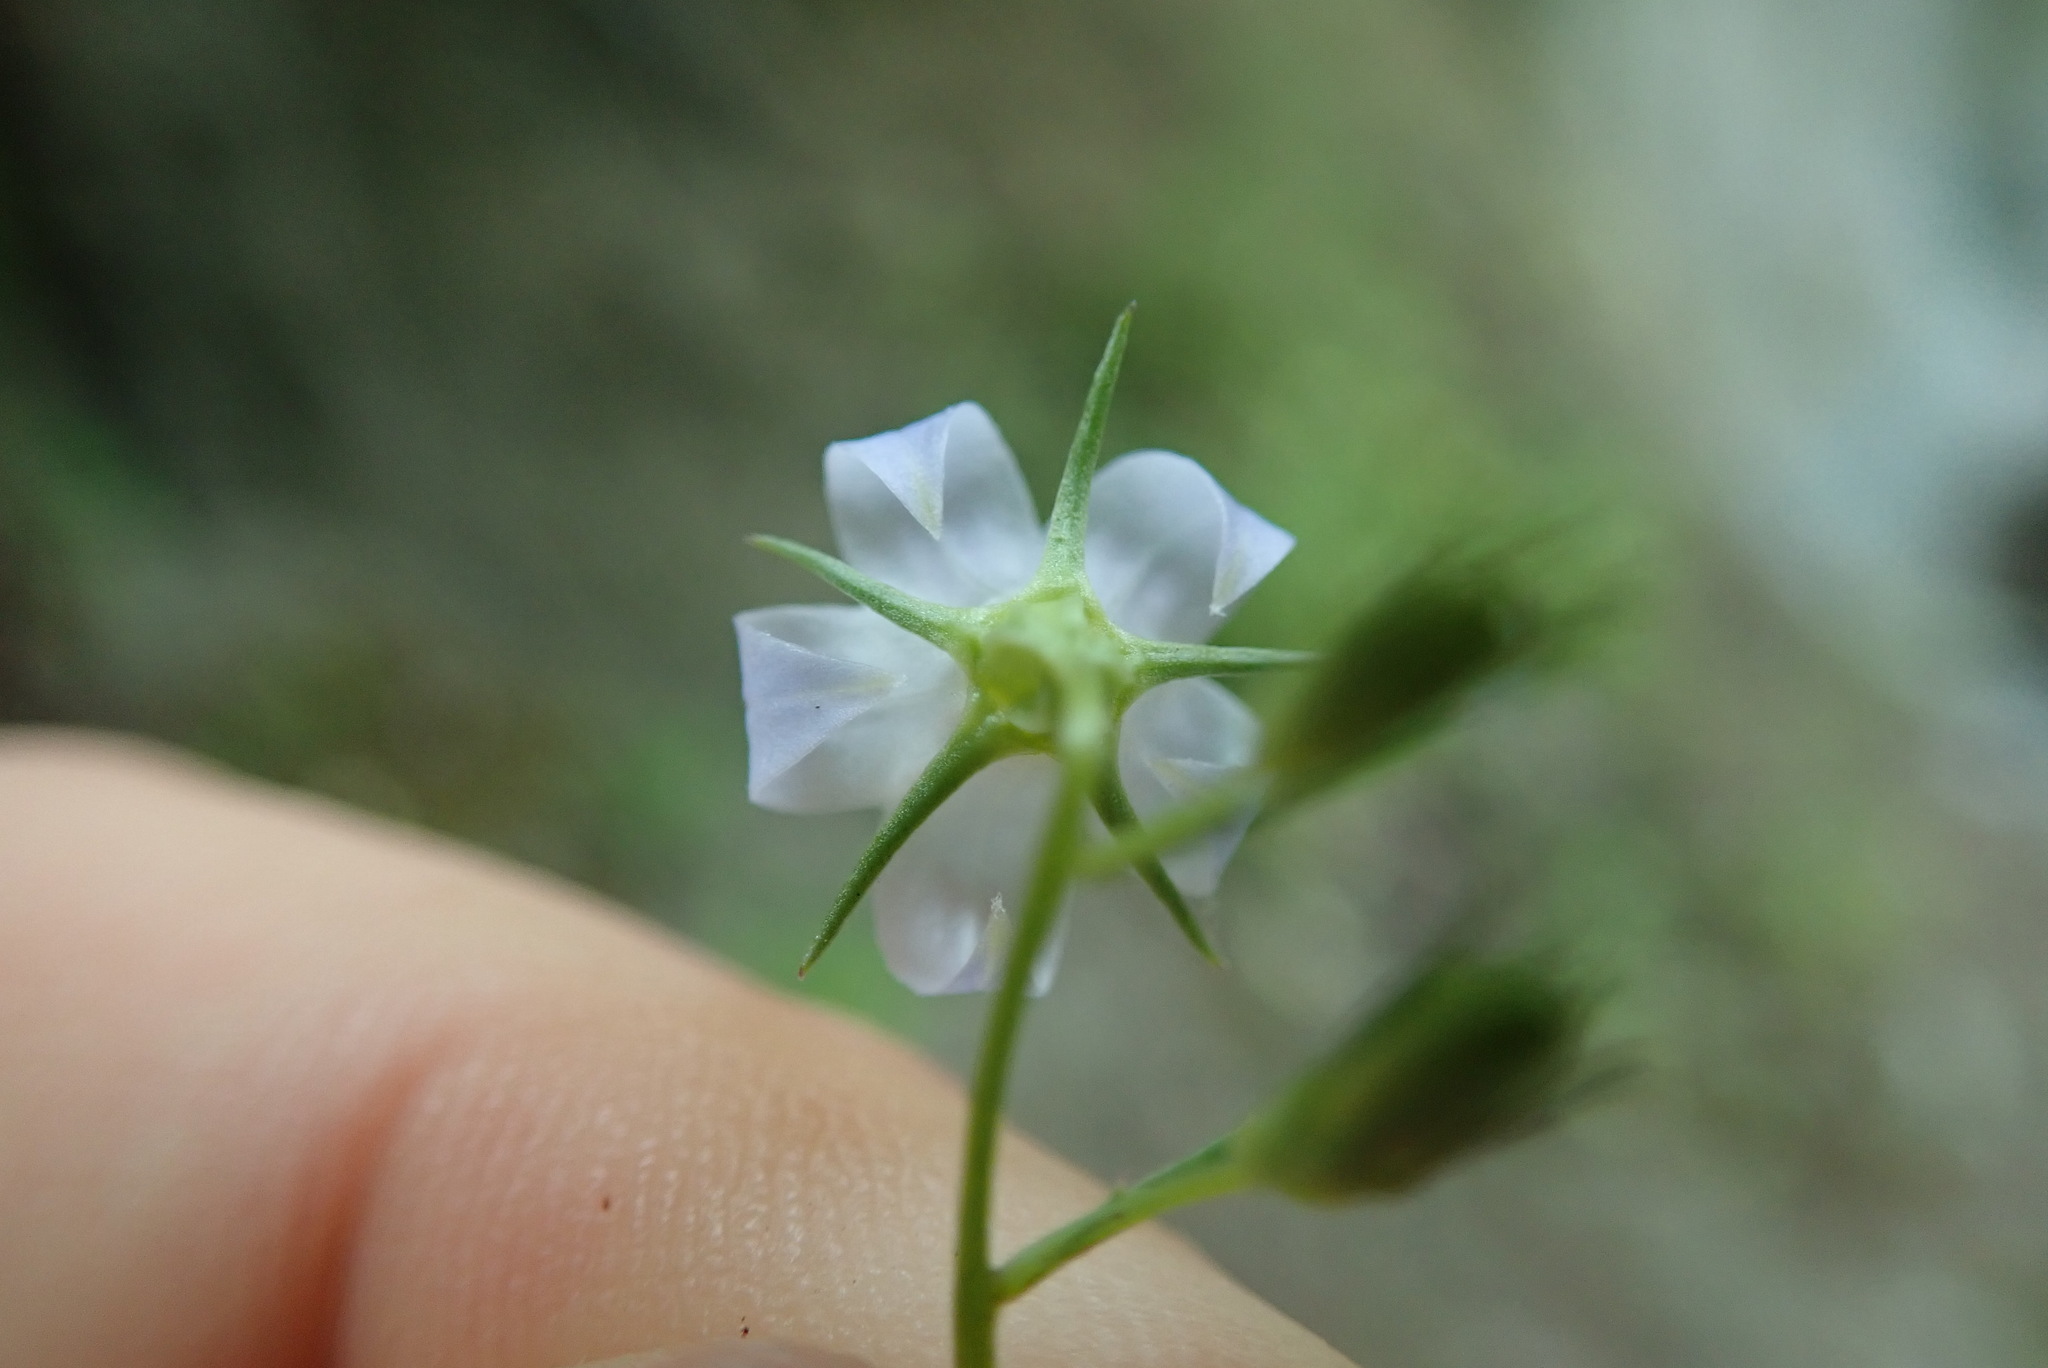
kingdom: Plantae
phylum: Tracheophyta
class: Magnoliopsida
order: Asterales
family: Campanulaceae
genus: Campanula
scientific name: Campanula scouleri
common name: Scouler's harebell
